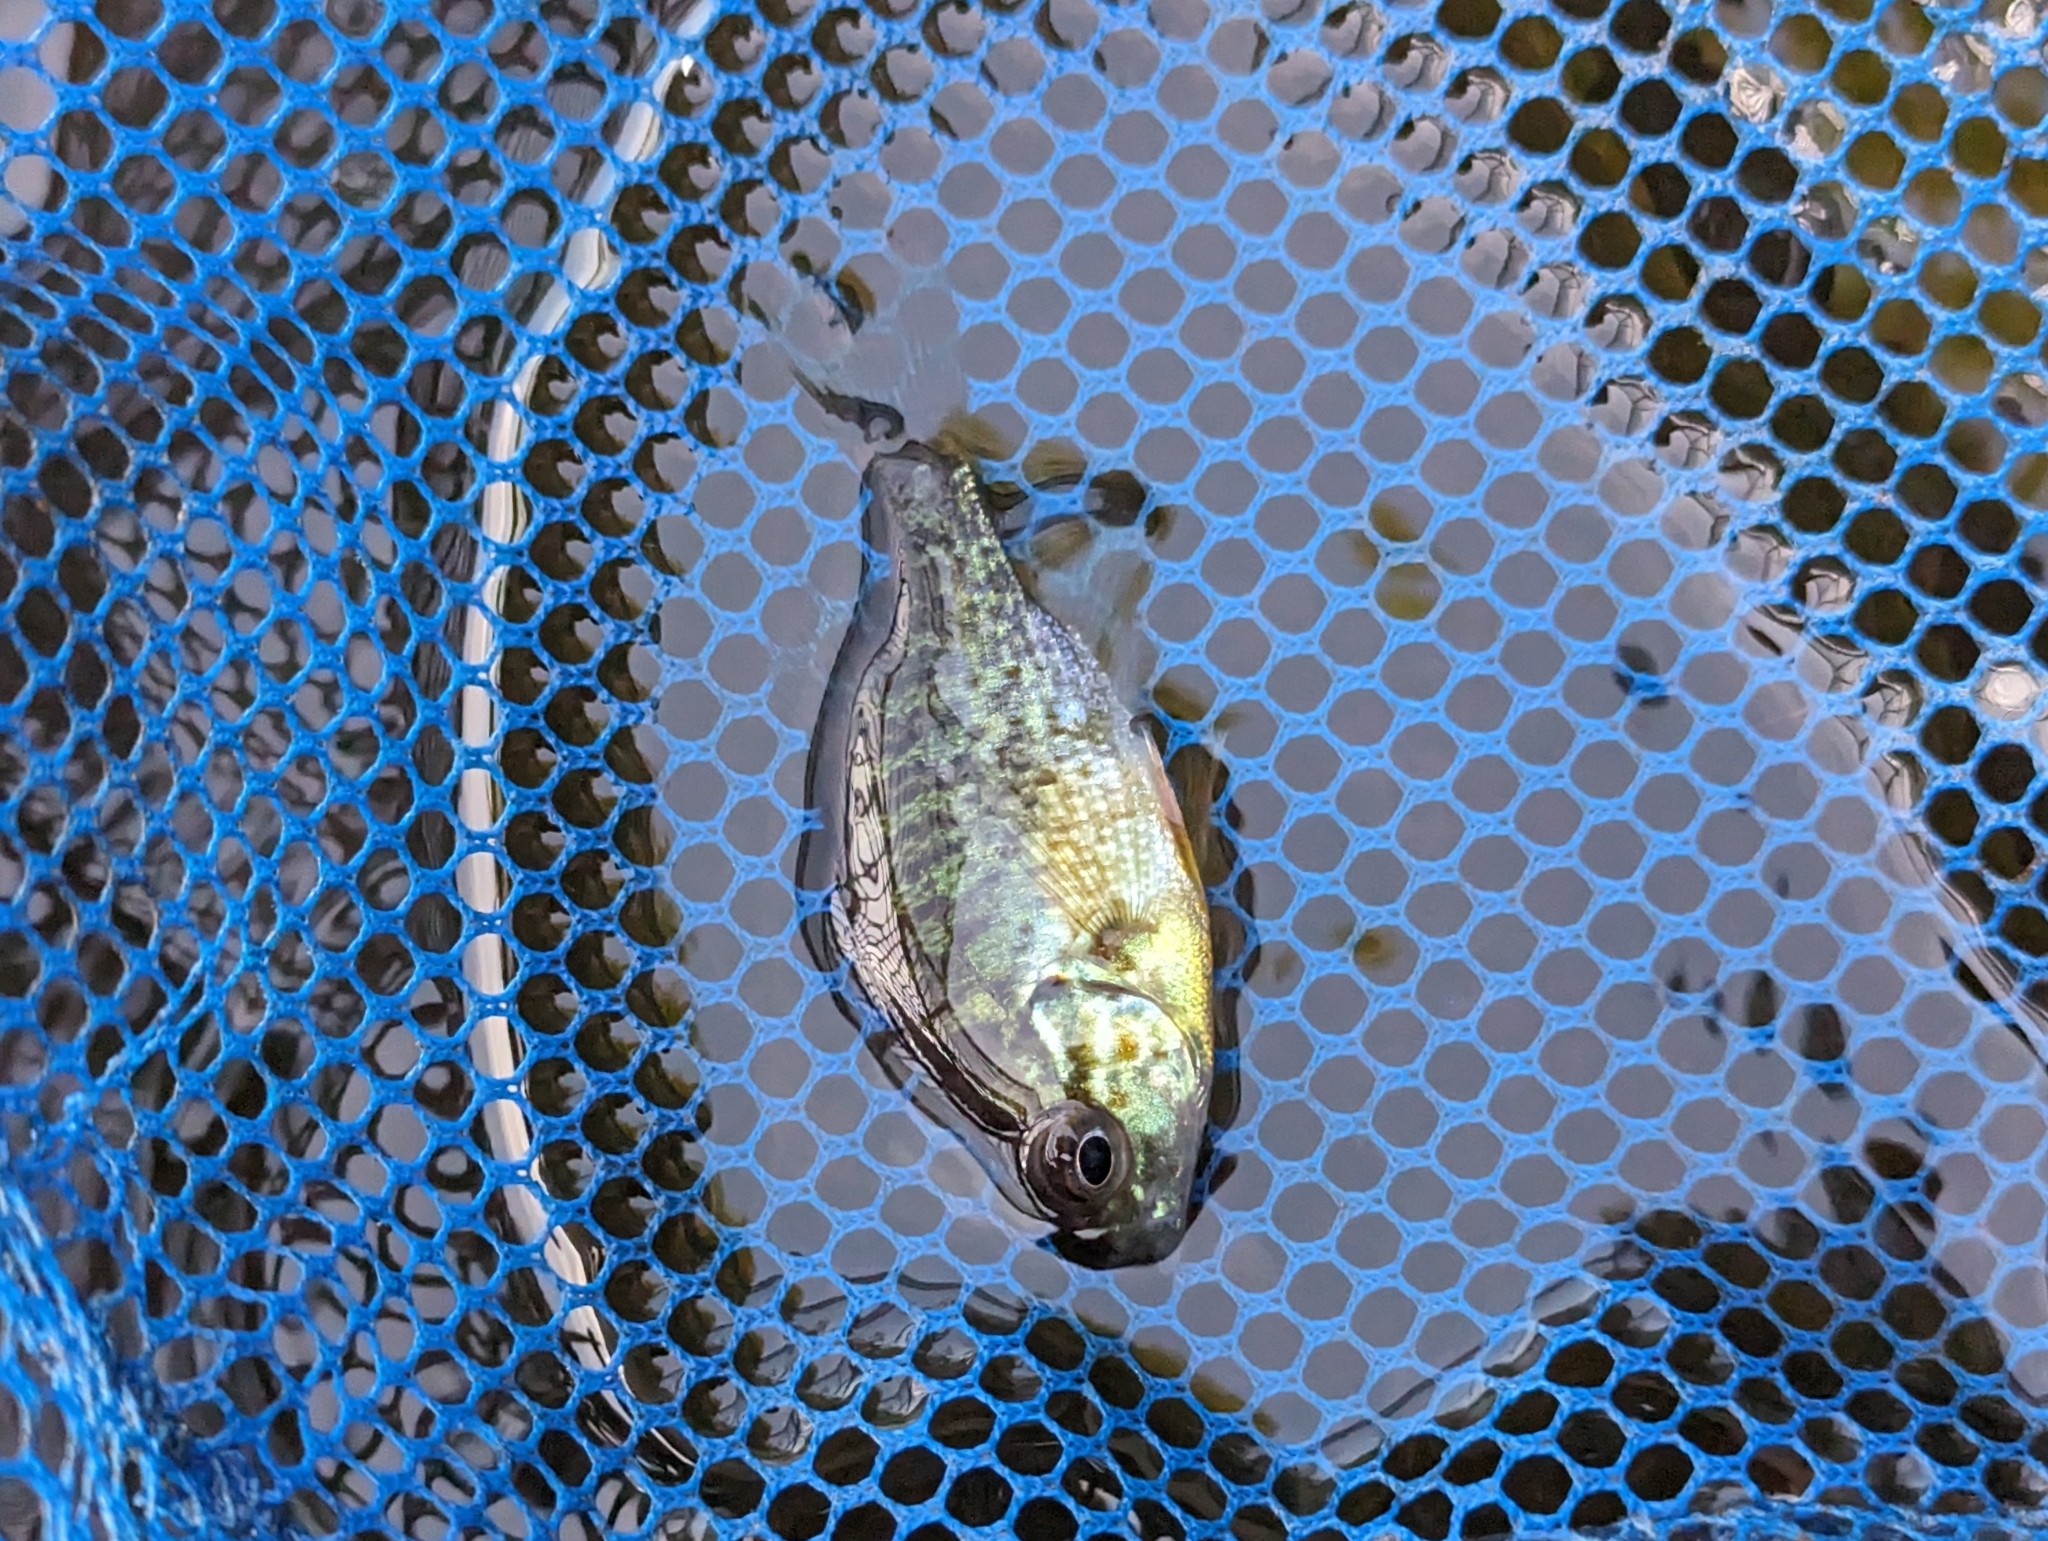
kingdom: Animalia
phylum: Chordata
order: Perciformes
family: Centrarchidae
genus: Lepomis
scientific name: Lepomis gibbosus
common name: Pumpkinseed
